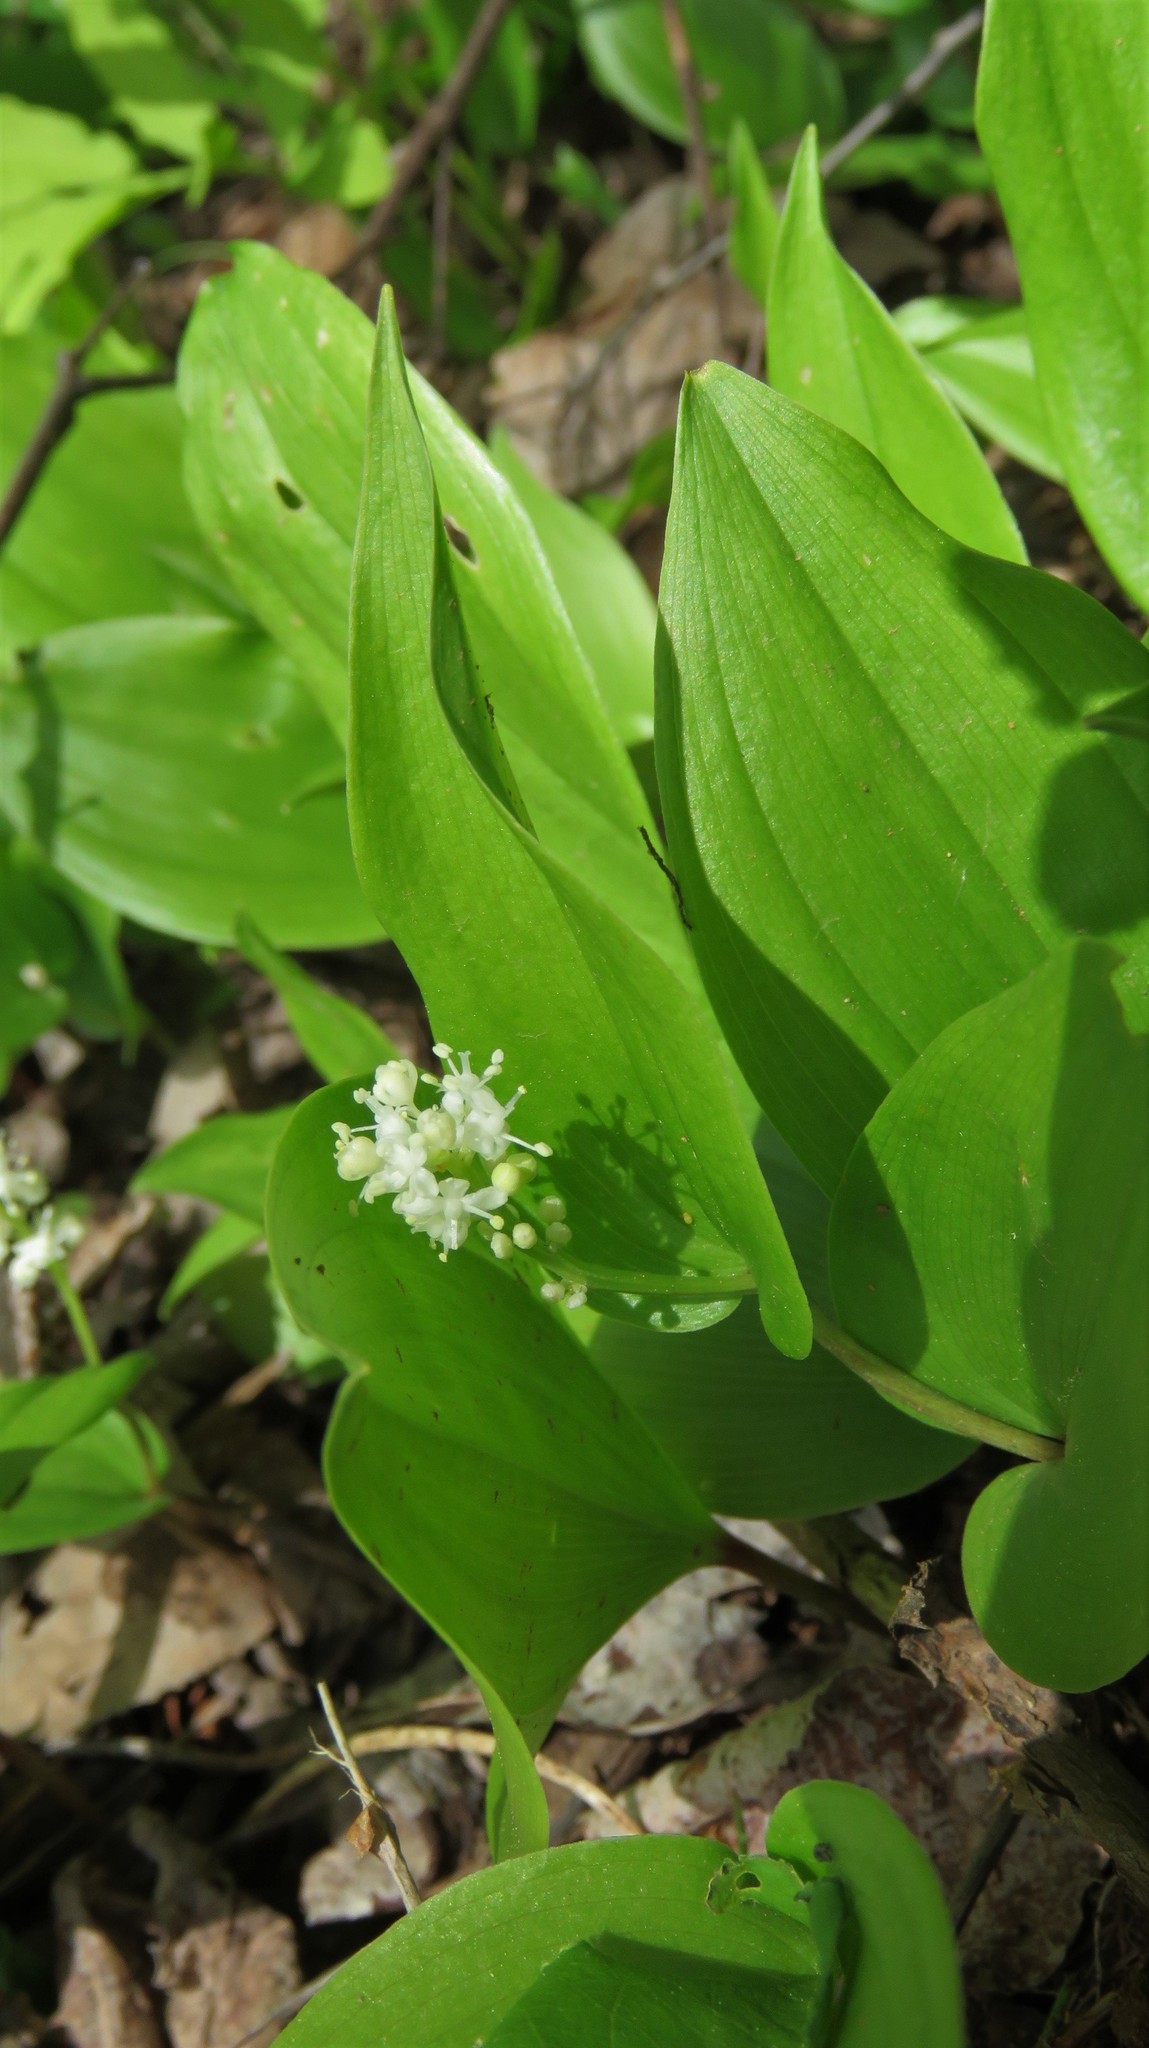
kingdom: Plantae
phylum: Tracheophyta
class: Liliopsida
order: Asparagales
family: Asparagaceae
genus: Maianthemum
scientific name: Maianthemum canadense
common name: False lily-of-the-valley
